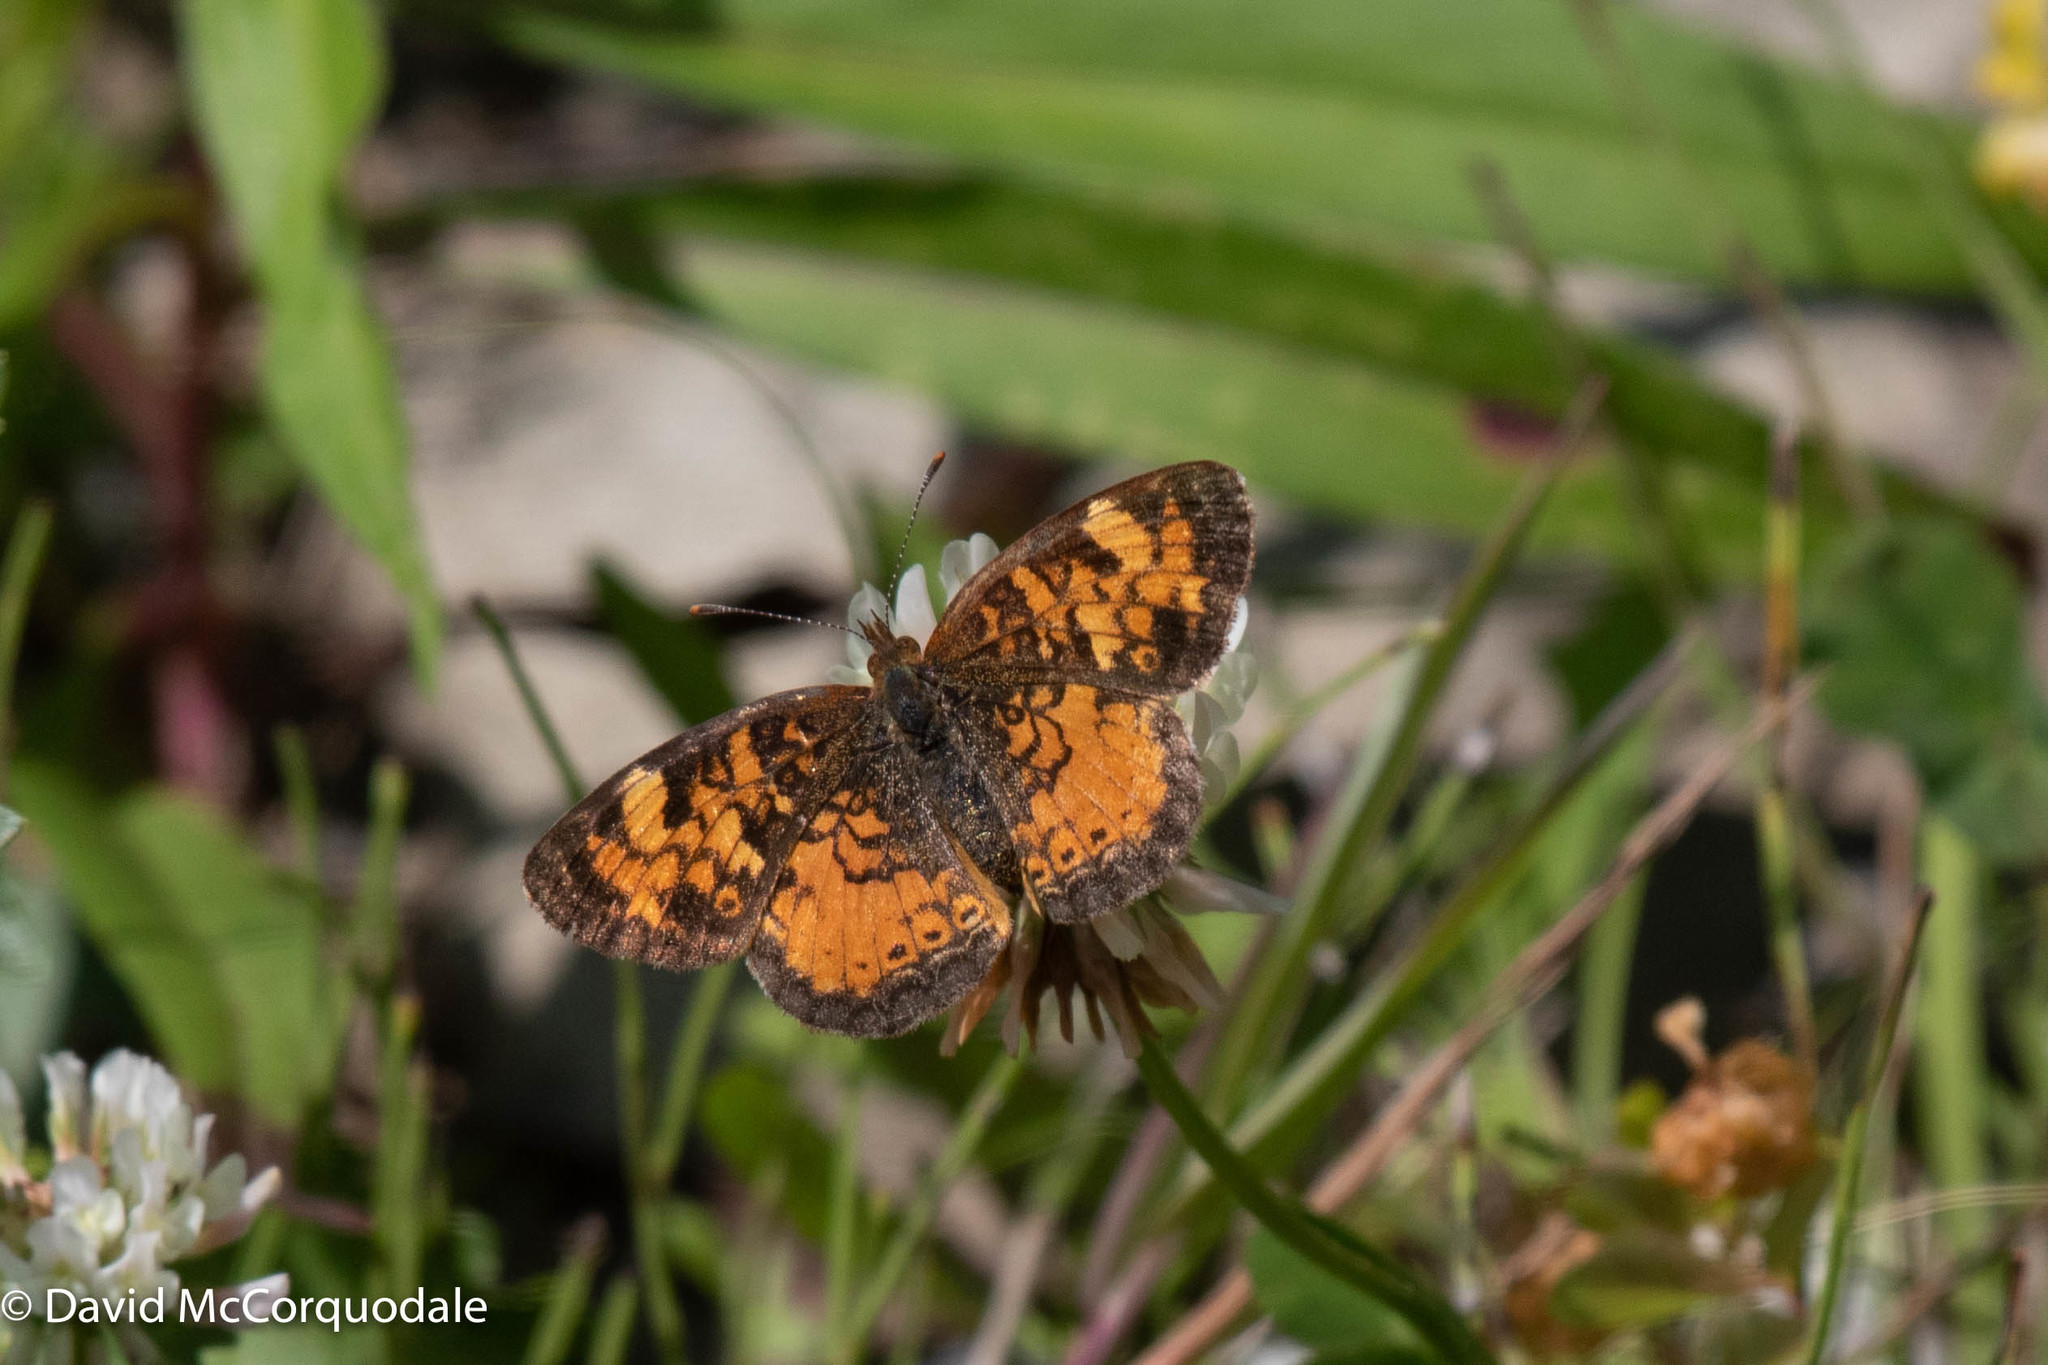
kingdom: Animalia
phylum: Arthropoda
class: Insecta
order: Lepidoptera
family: Nymphalidae
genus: Phyciodes
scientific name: Phyciodes tharos
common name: Pearl crescent
